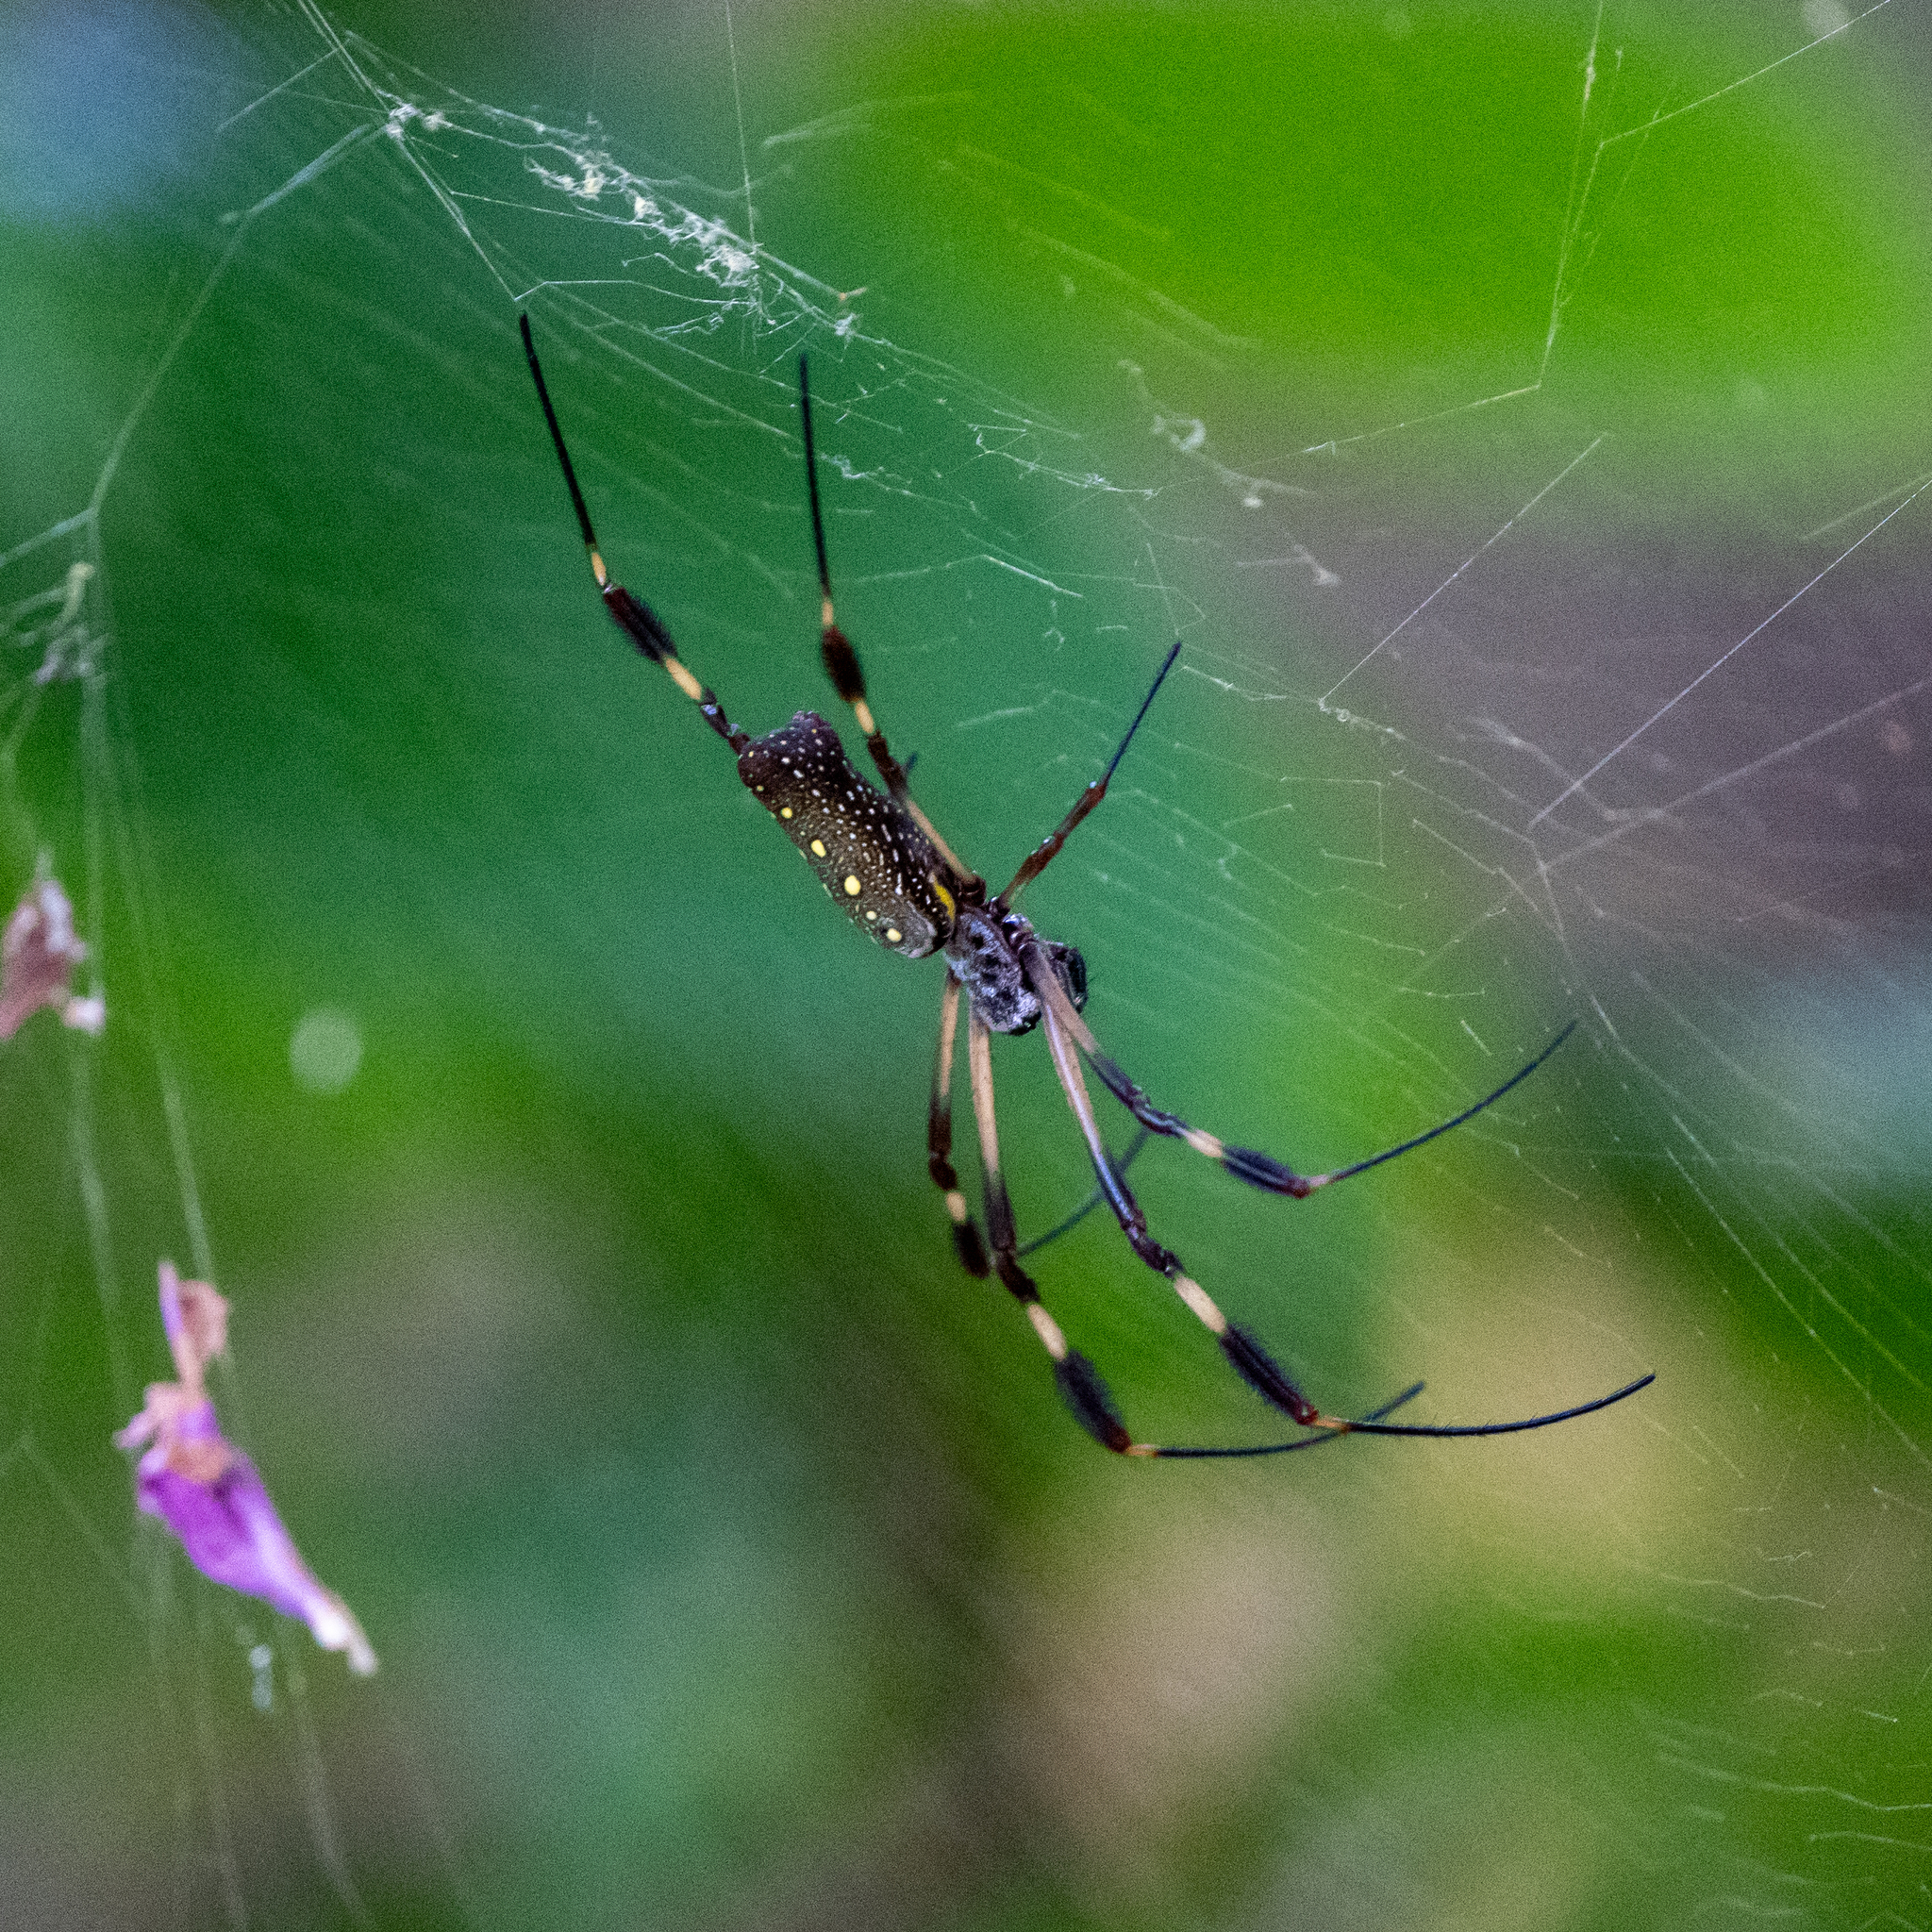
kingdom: Animalia
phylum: Arthropoda
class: Arachnida
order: Araneae
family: Araneidae
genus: Trichonephila
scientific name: Trichonephila clavipes
